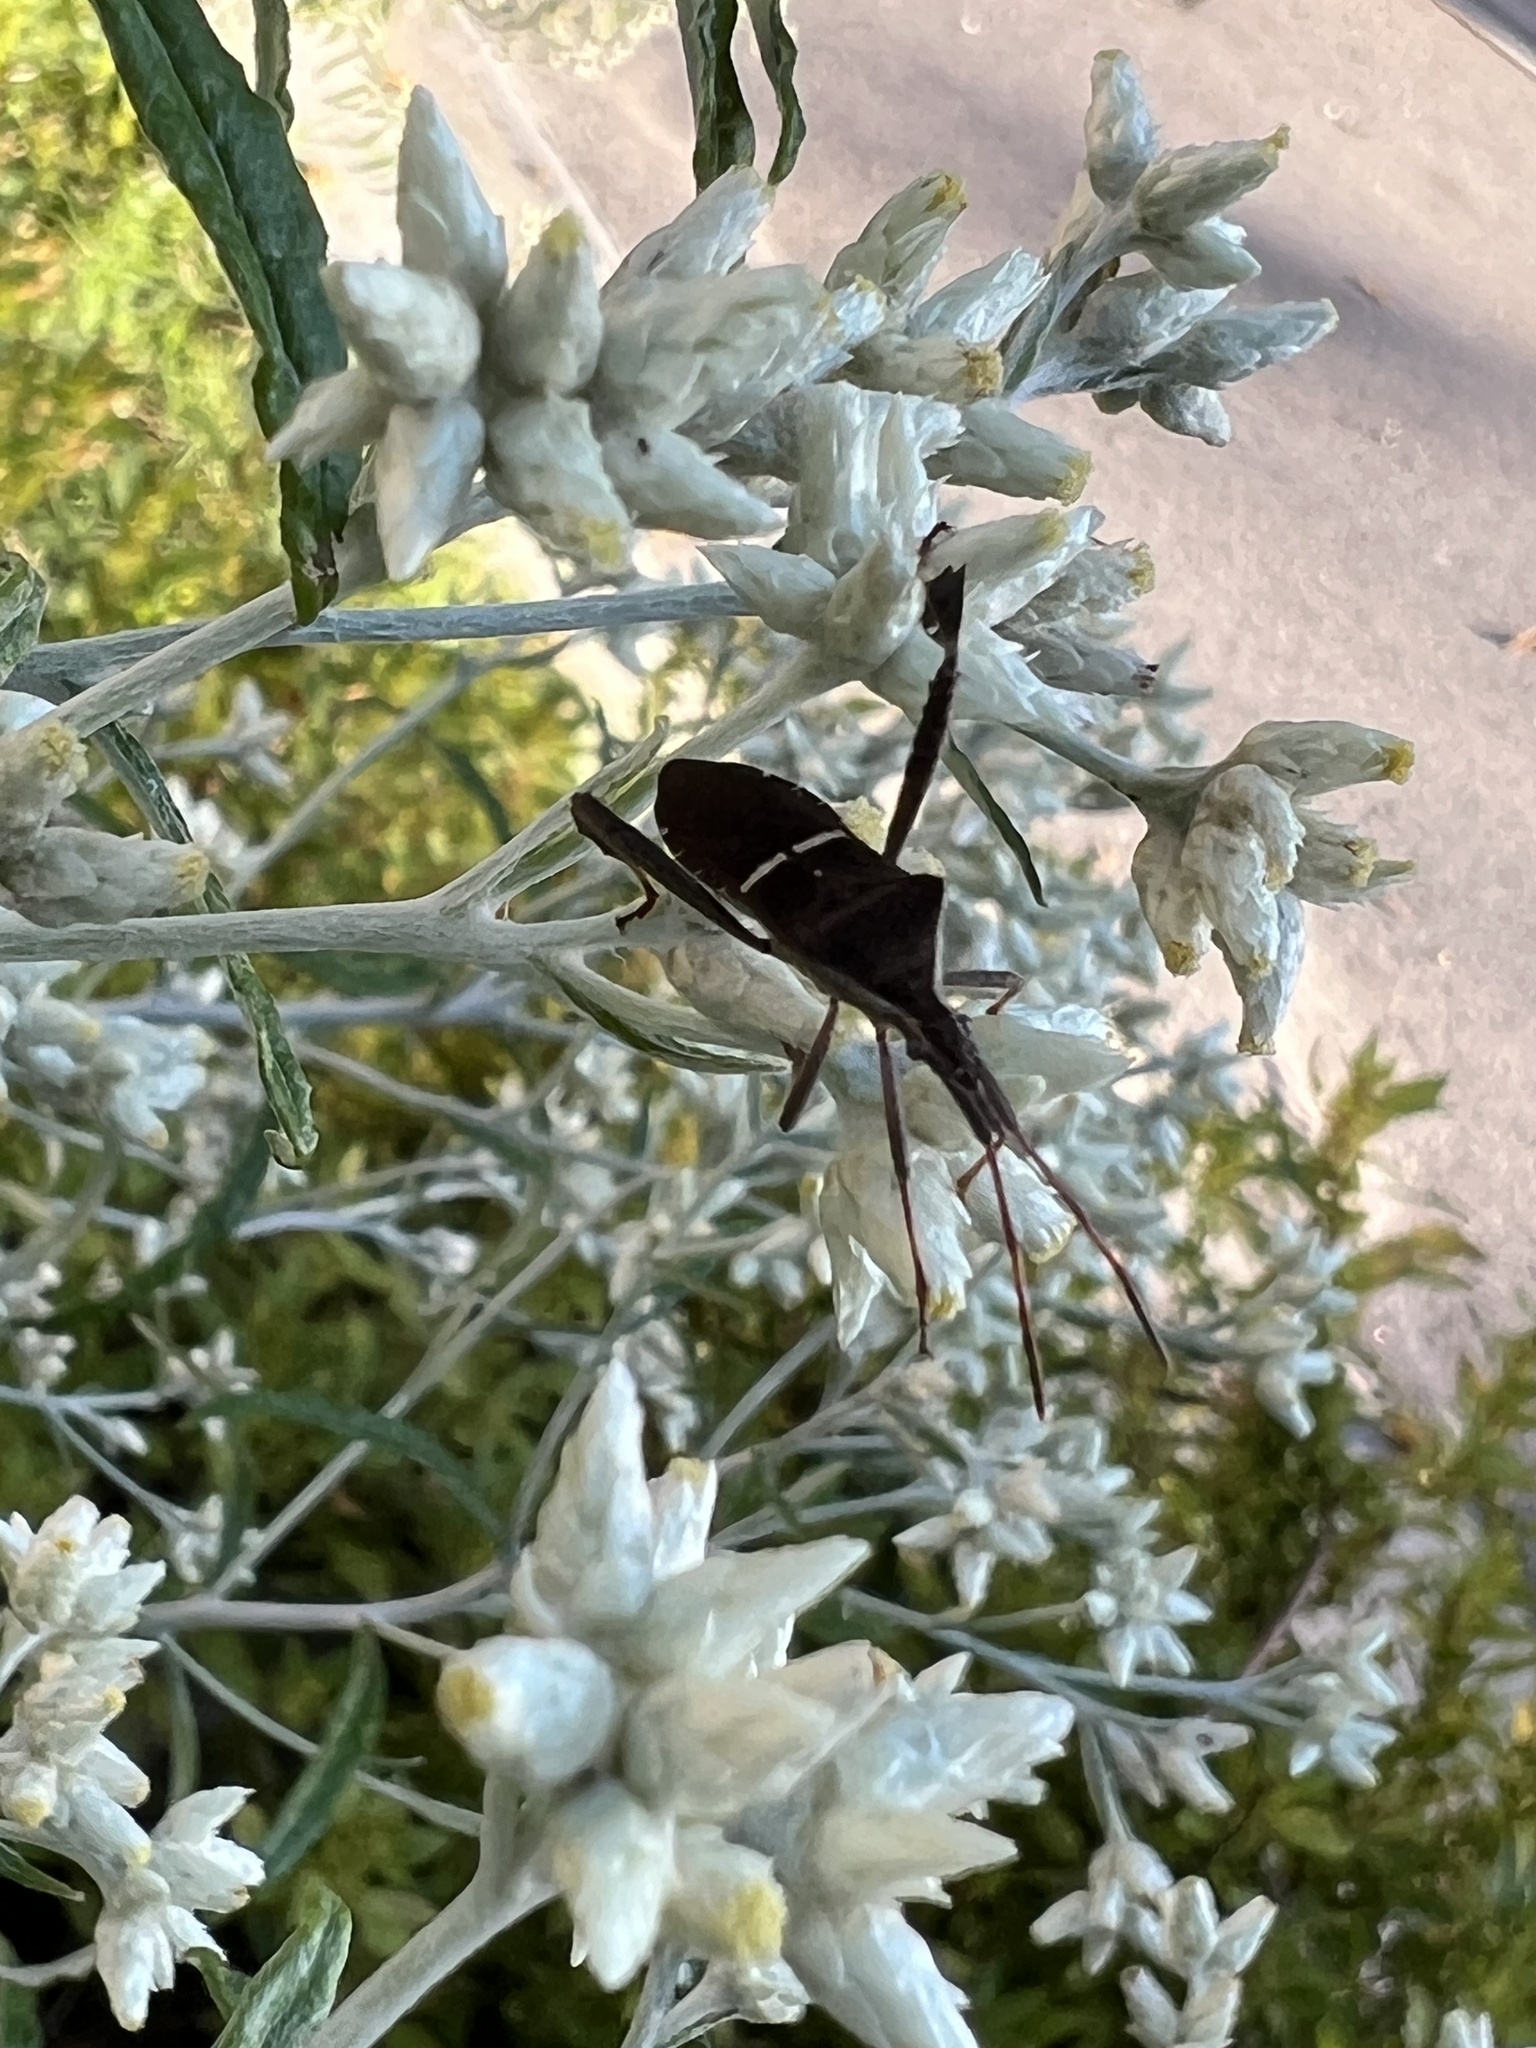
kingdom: Animalia
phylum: Arthropoda
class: Insecta
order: Hemiptera
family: Coreidae
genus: Leptoglossus
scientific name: Leptoglossus phyllopus
